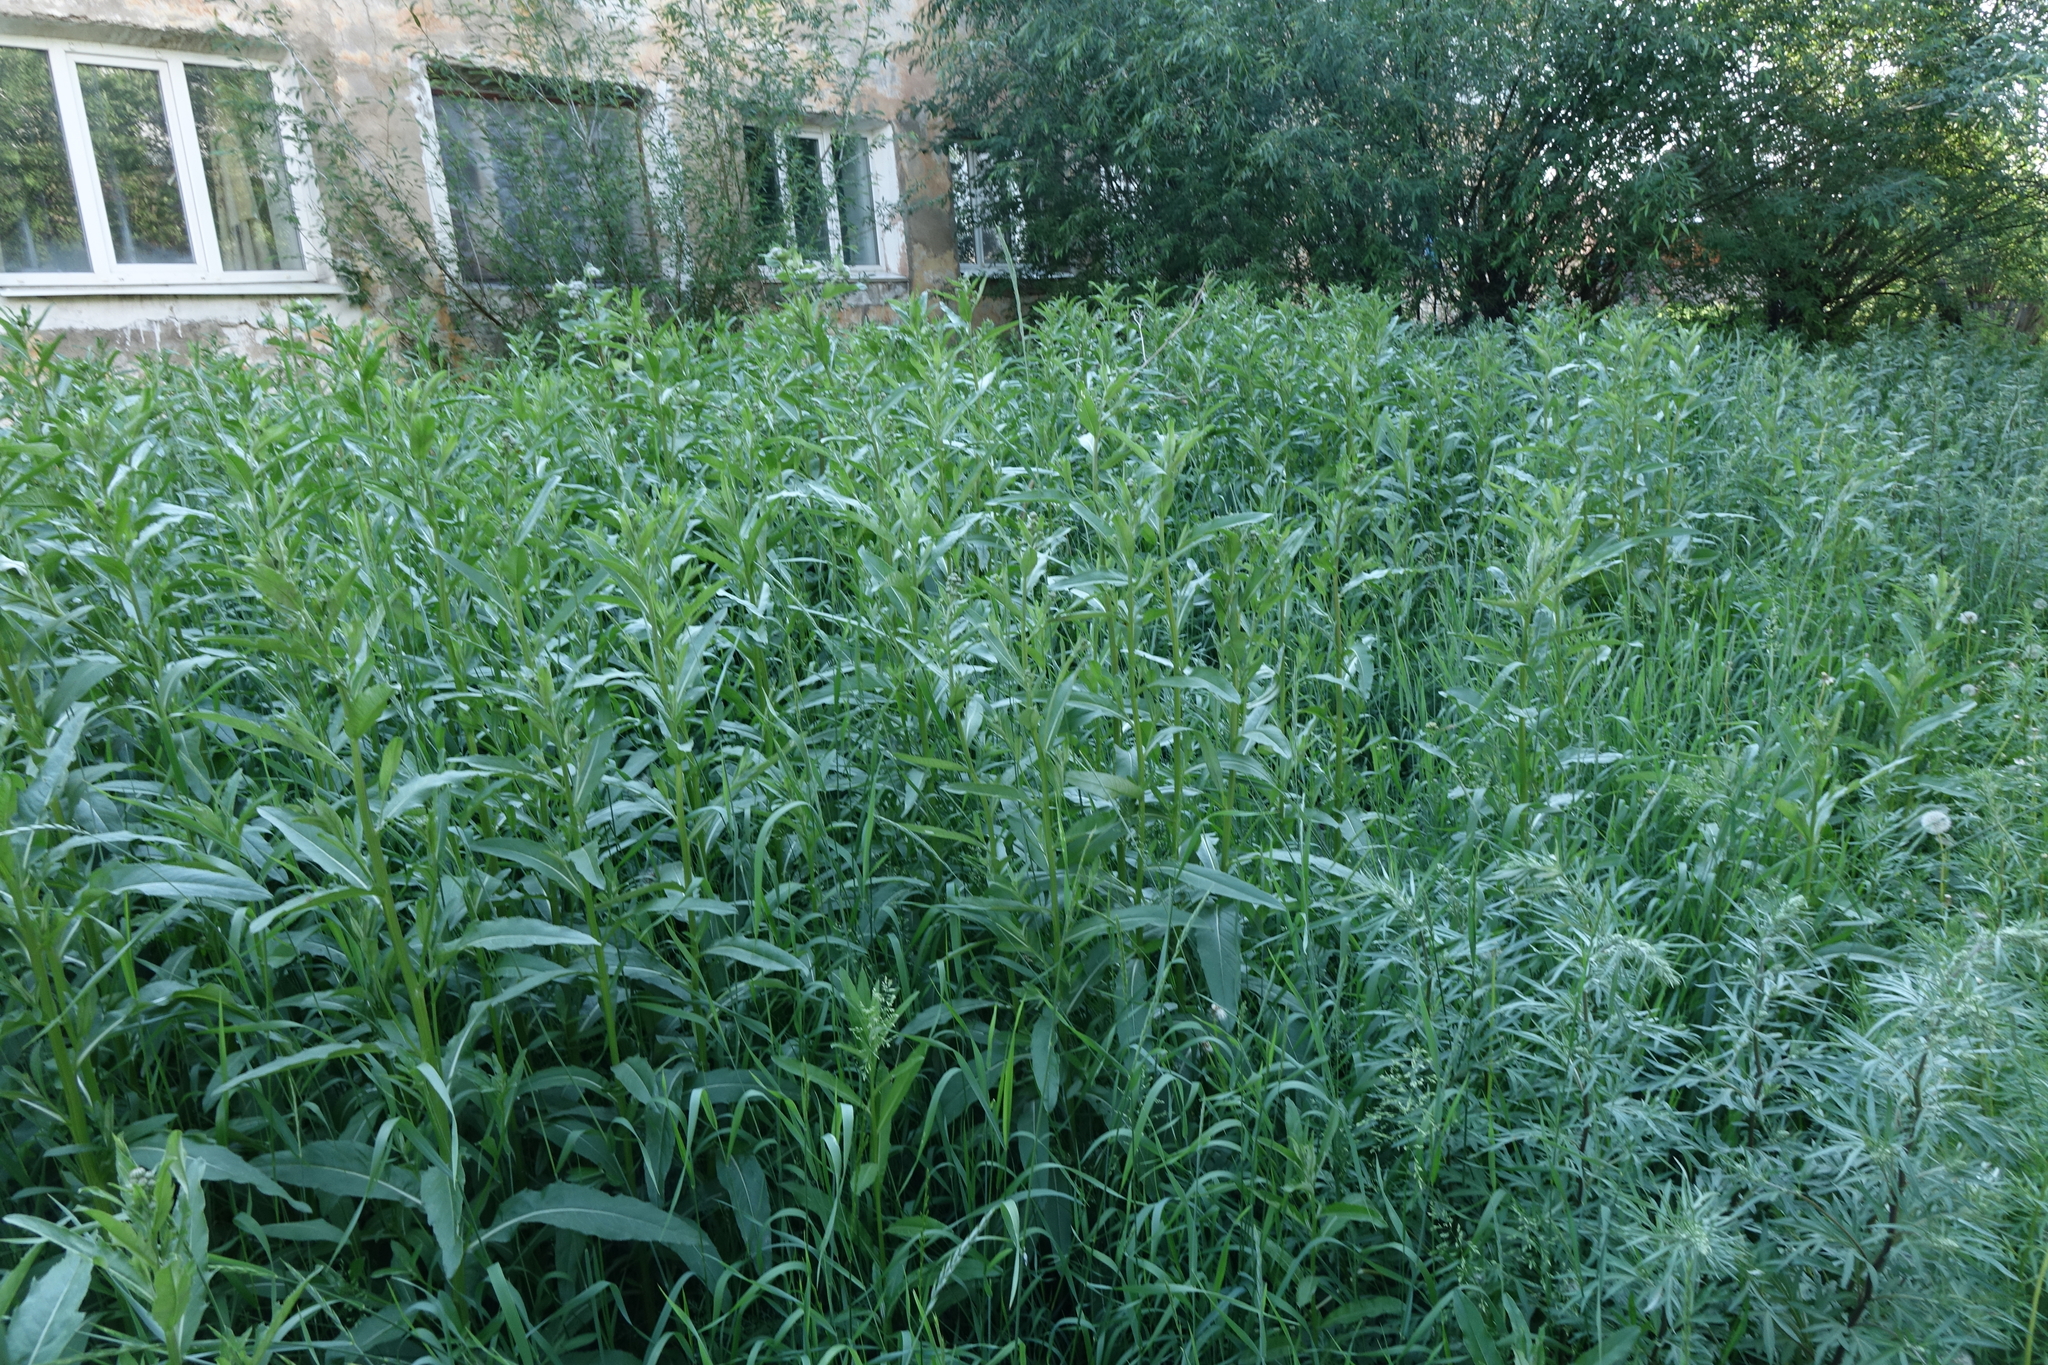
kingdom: Plantae
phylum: Tracheophyta
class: Magnoliopsida
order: Asterales
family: Asteraceae
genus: Cirsium
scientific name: Cirsium arvense
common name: Creeping thistle
